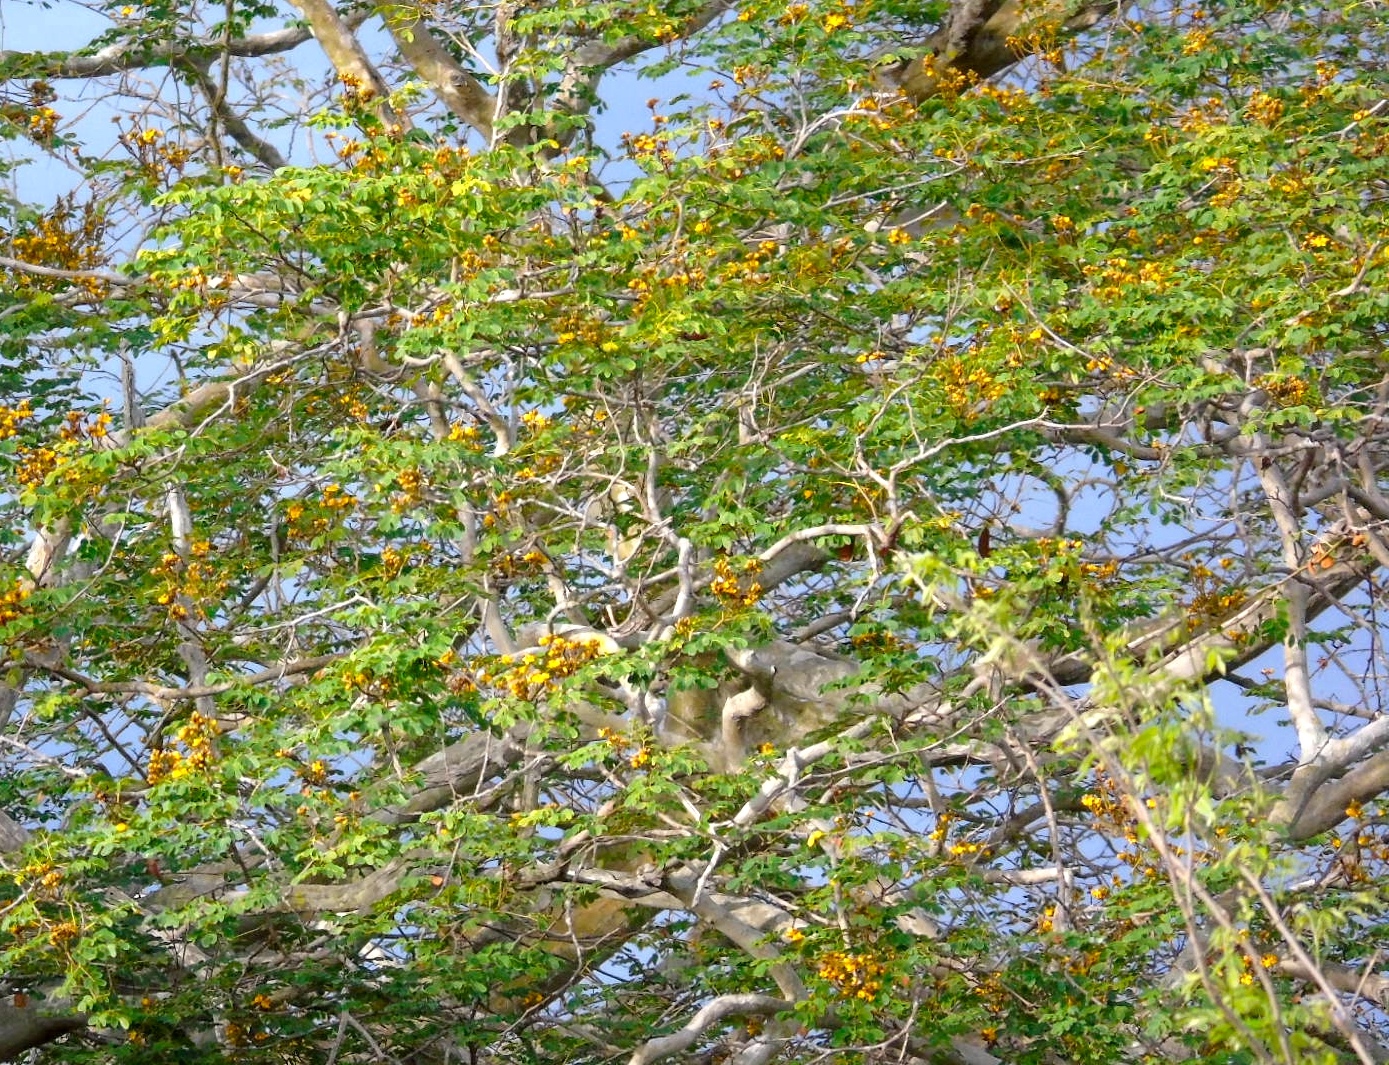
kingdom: Plantae
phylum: Tracheophyta
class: Magnoliopsida
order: Fabales
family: Fabaceae
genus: Libidibia
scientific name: Libidibia sclerocarpa
